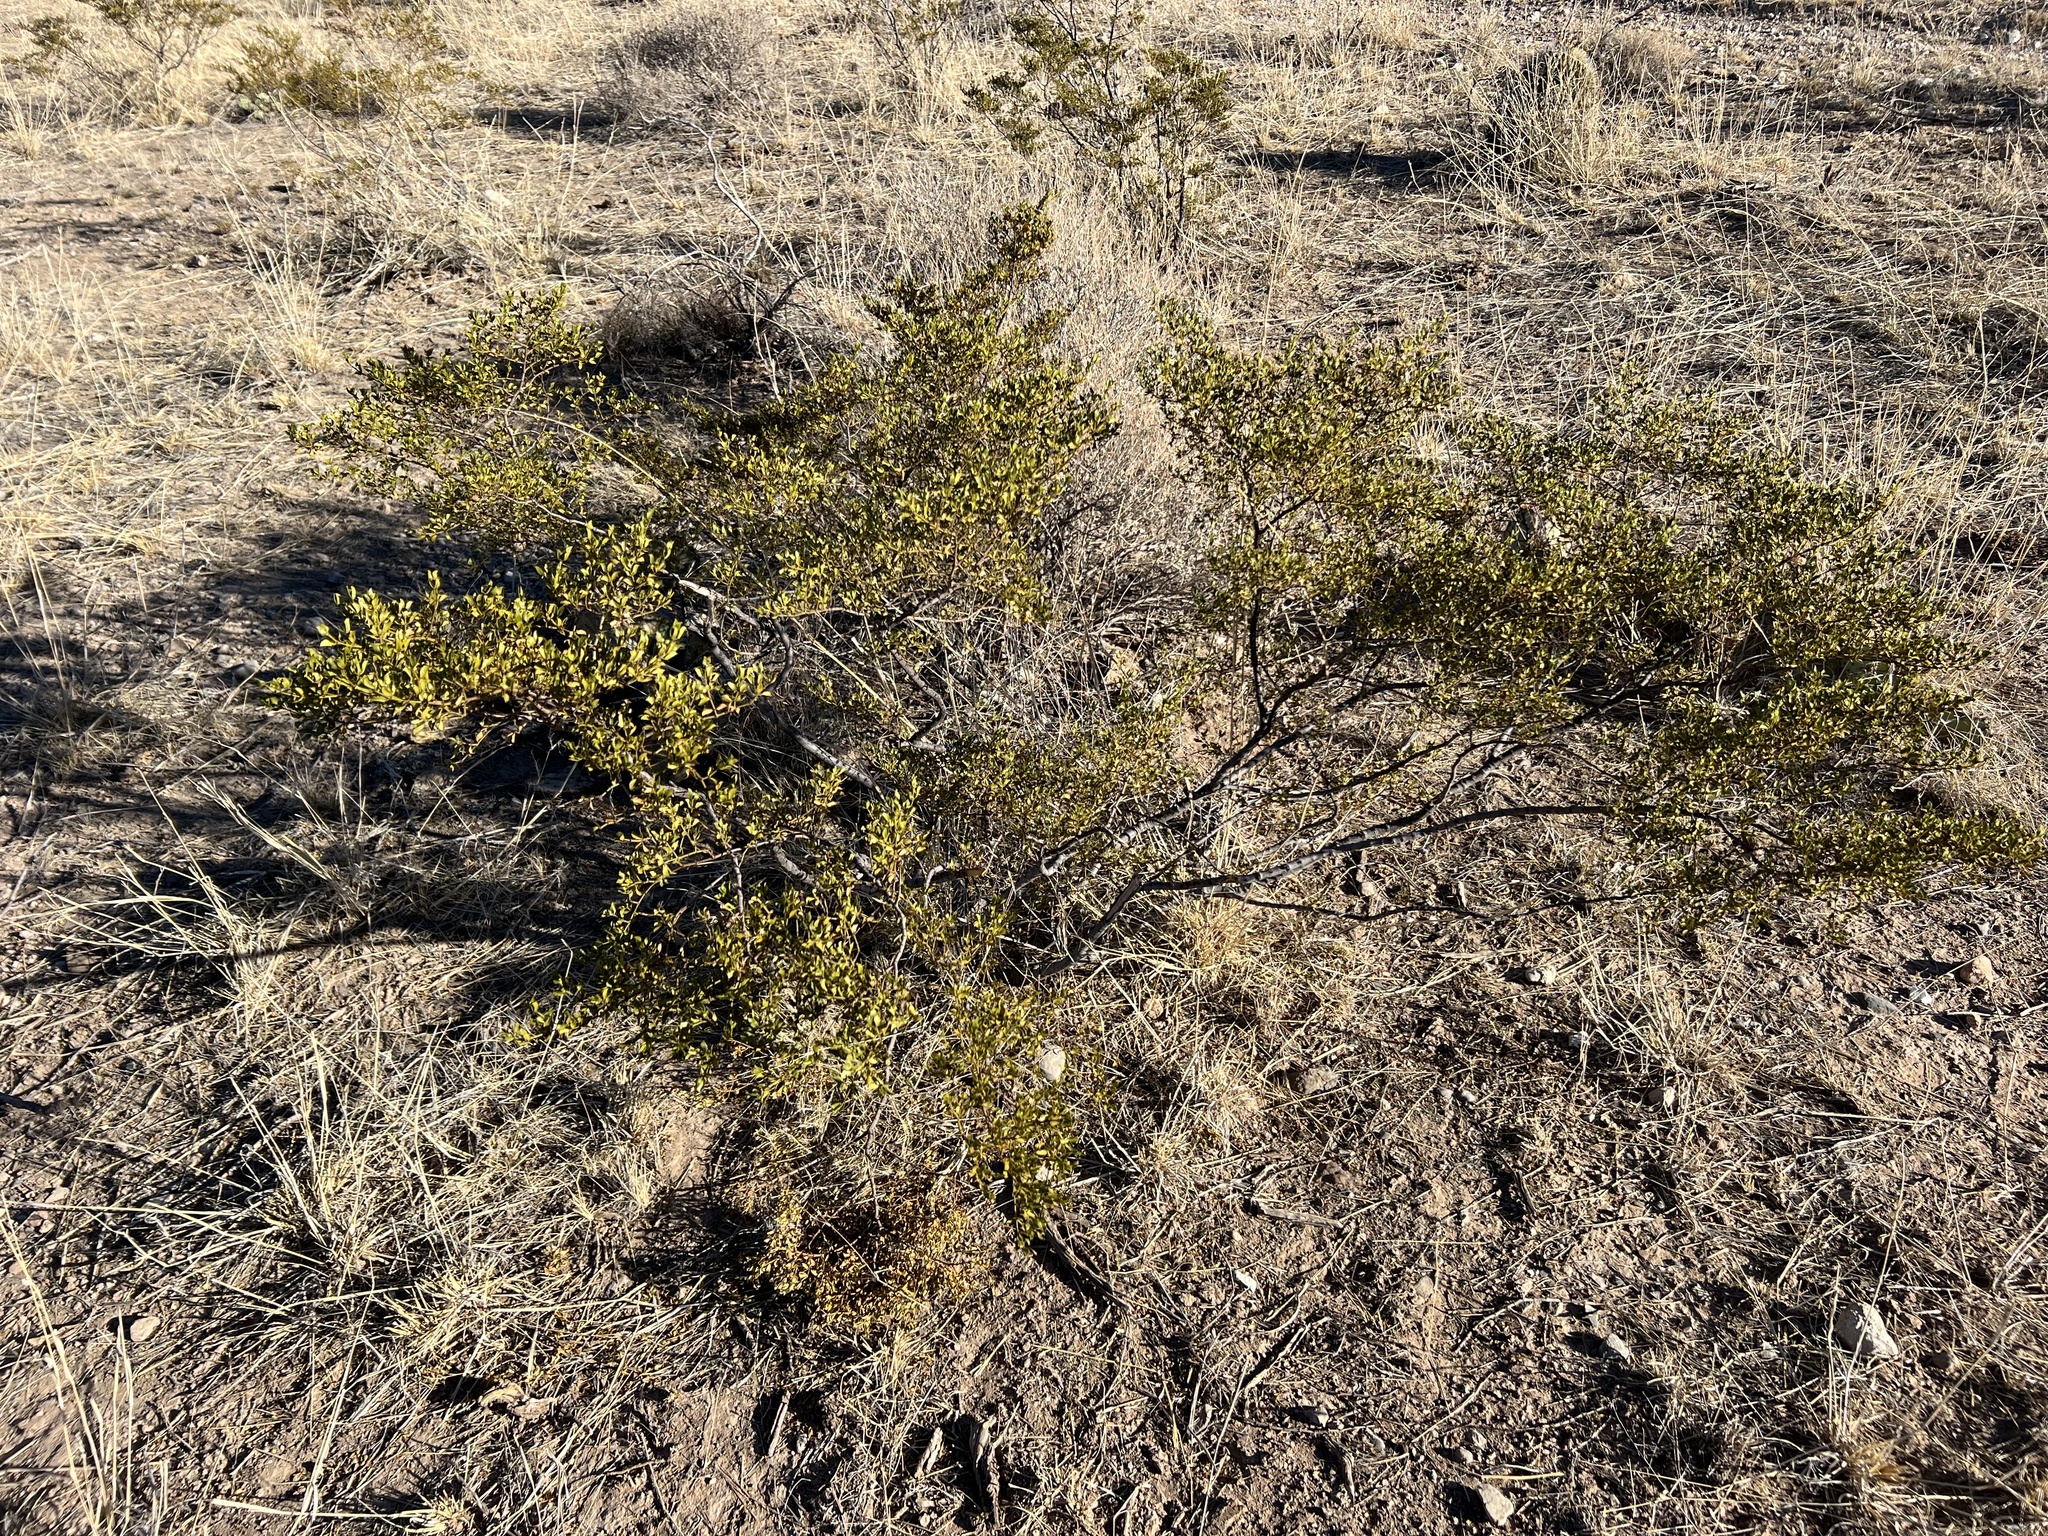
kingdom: Plantae
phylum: Tracheophyta
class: Magnoliopsida
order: Zygophyllales
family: Zygophyllaceae
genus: Larrea
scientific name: Larrea tridentata
